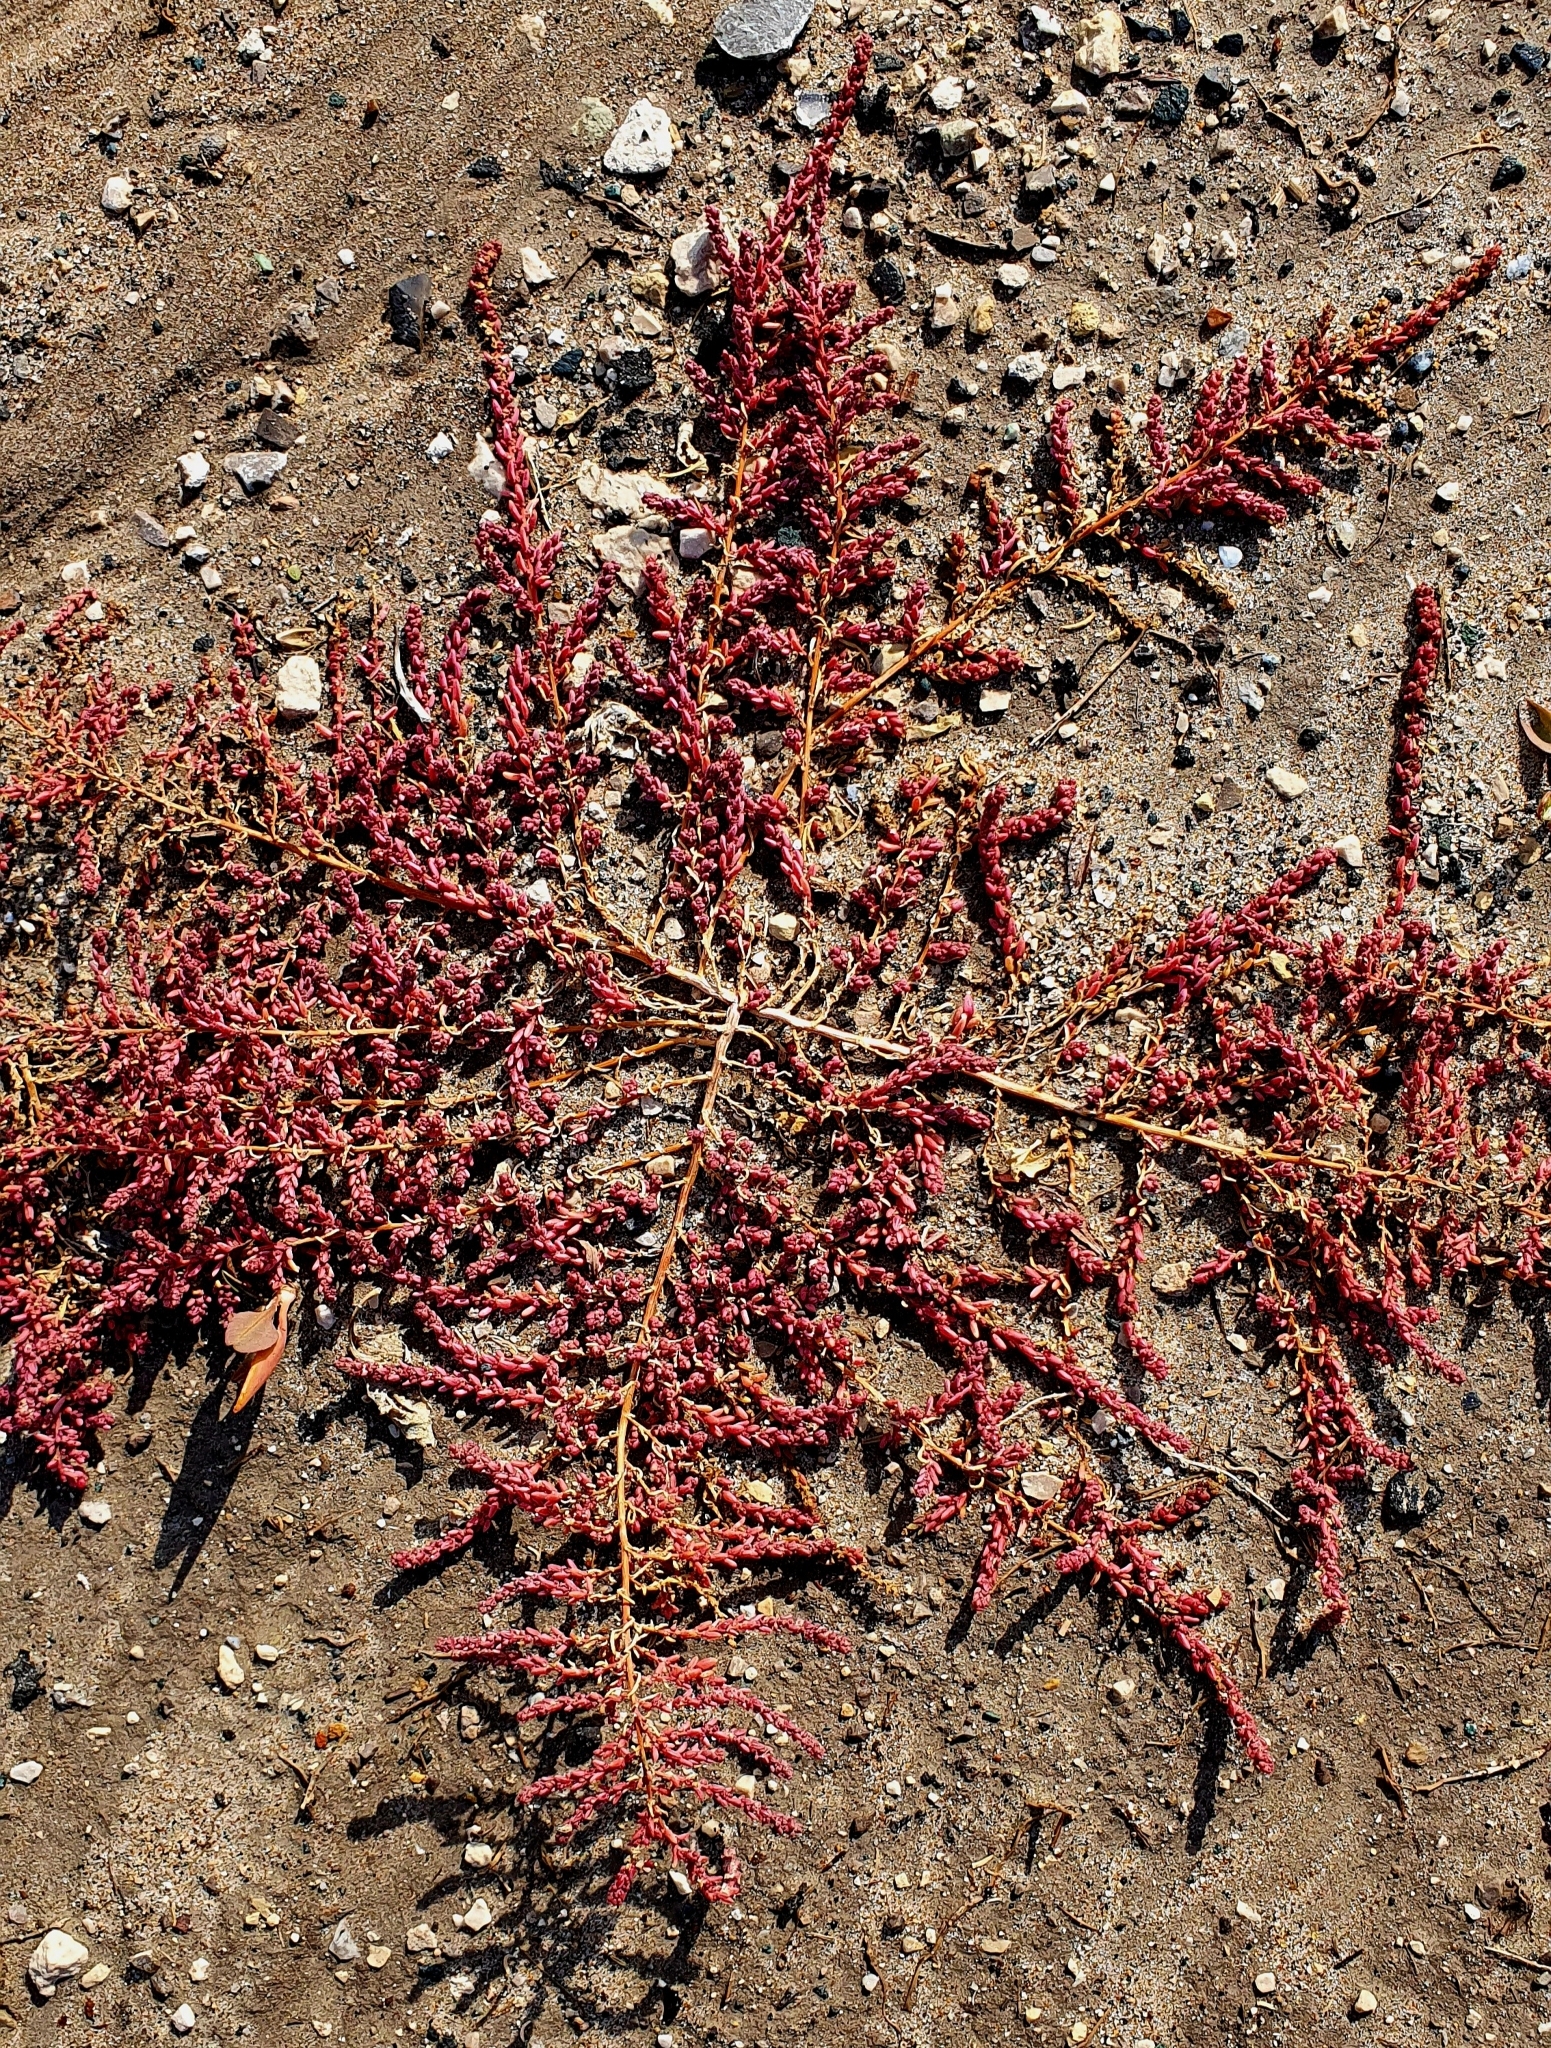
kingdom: Plantae
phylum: Tracheophyta
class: Magnoliopsida
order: Caryophyllales
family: Amaranthaceae
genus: Suaeda
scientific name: Suaeda corniculata
